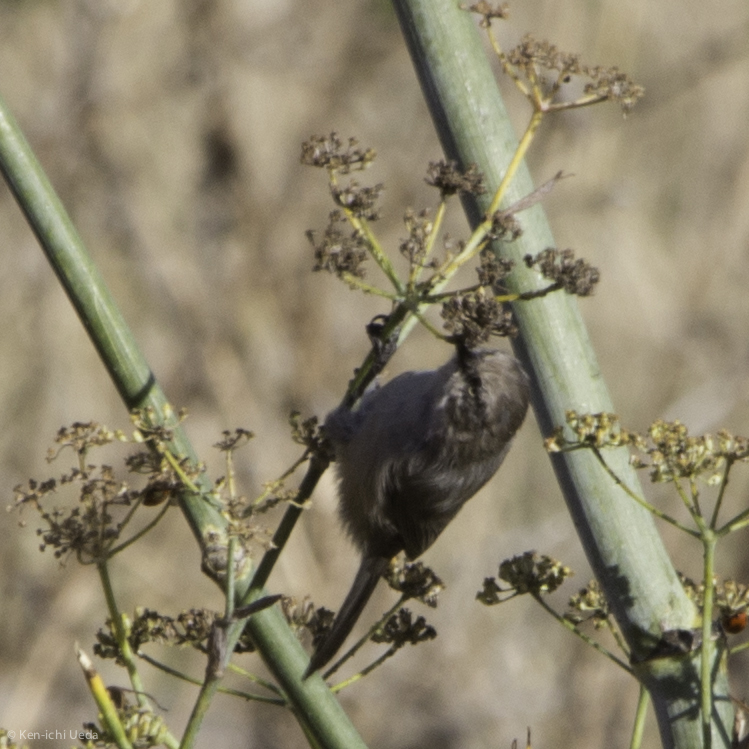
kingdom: Animalia
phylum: Chordata
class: Aves
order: Passeriformes
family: Aegithalidae
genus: Psaltriparus
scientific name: Psaltriparus minimus
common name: American bushtit
